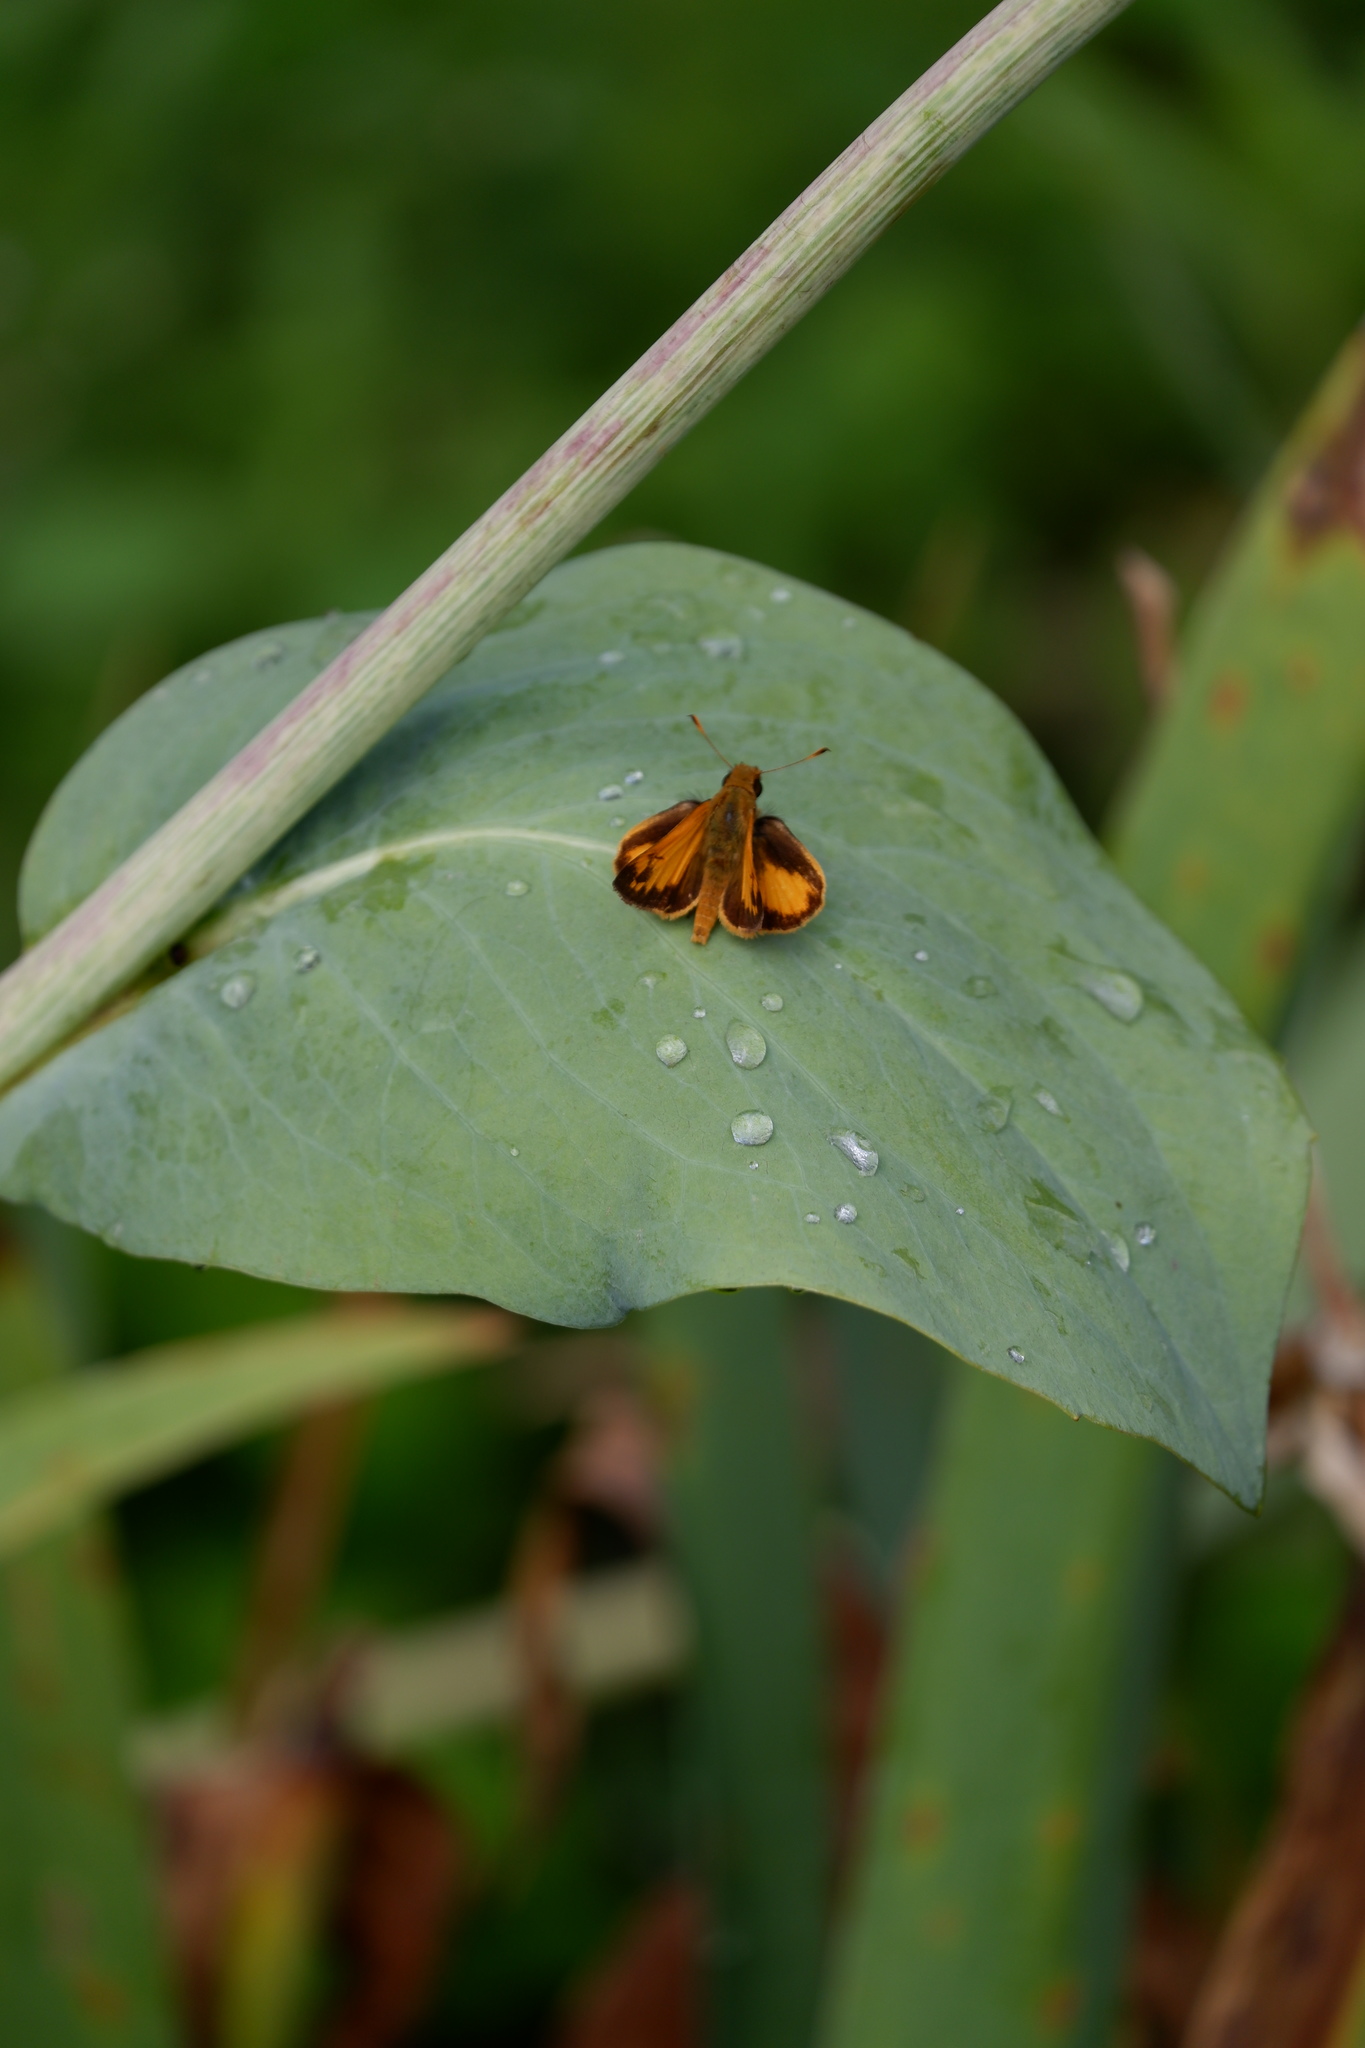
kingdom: Animalia
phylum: Arthropoda
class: Insecta
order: Lepidoptera
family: Hesperiidae
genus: Lon
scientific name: Lon zabulon
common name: Zabulon skipper
